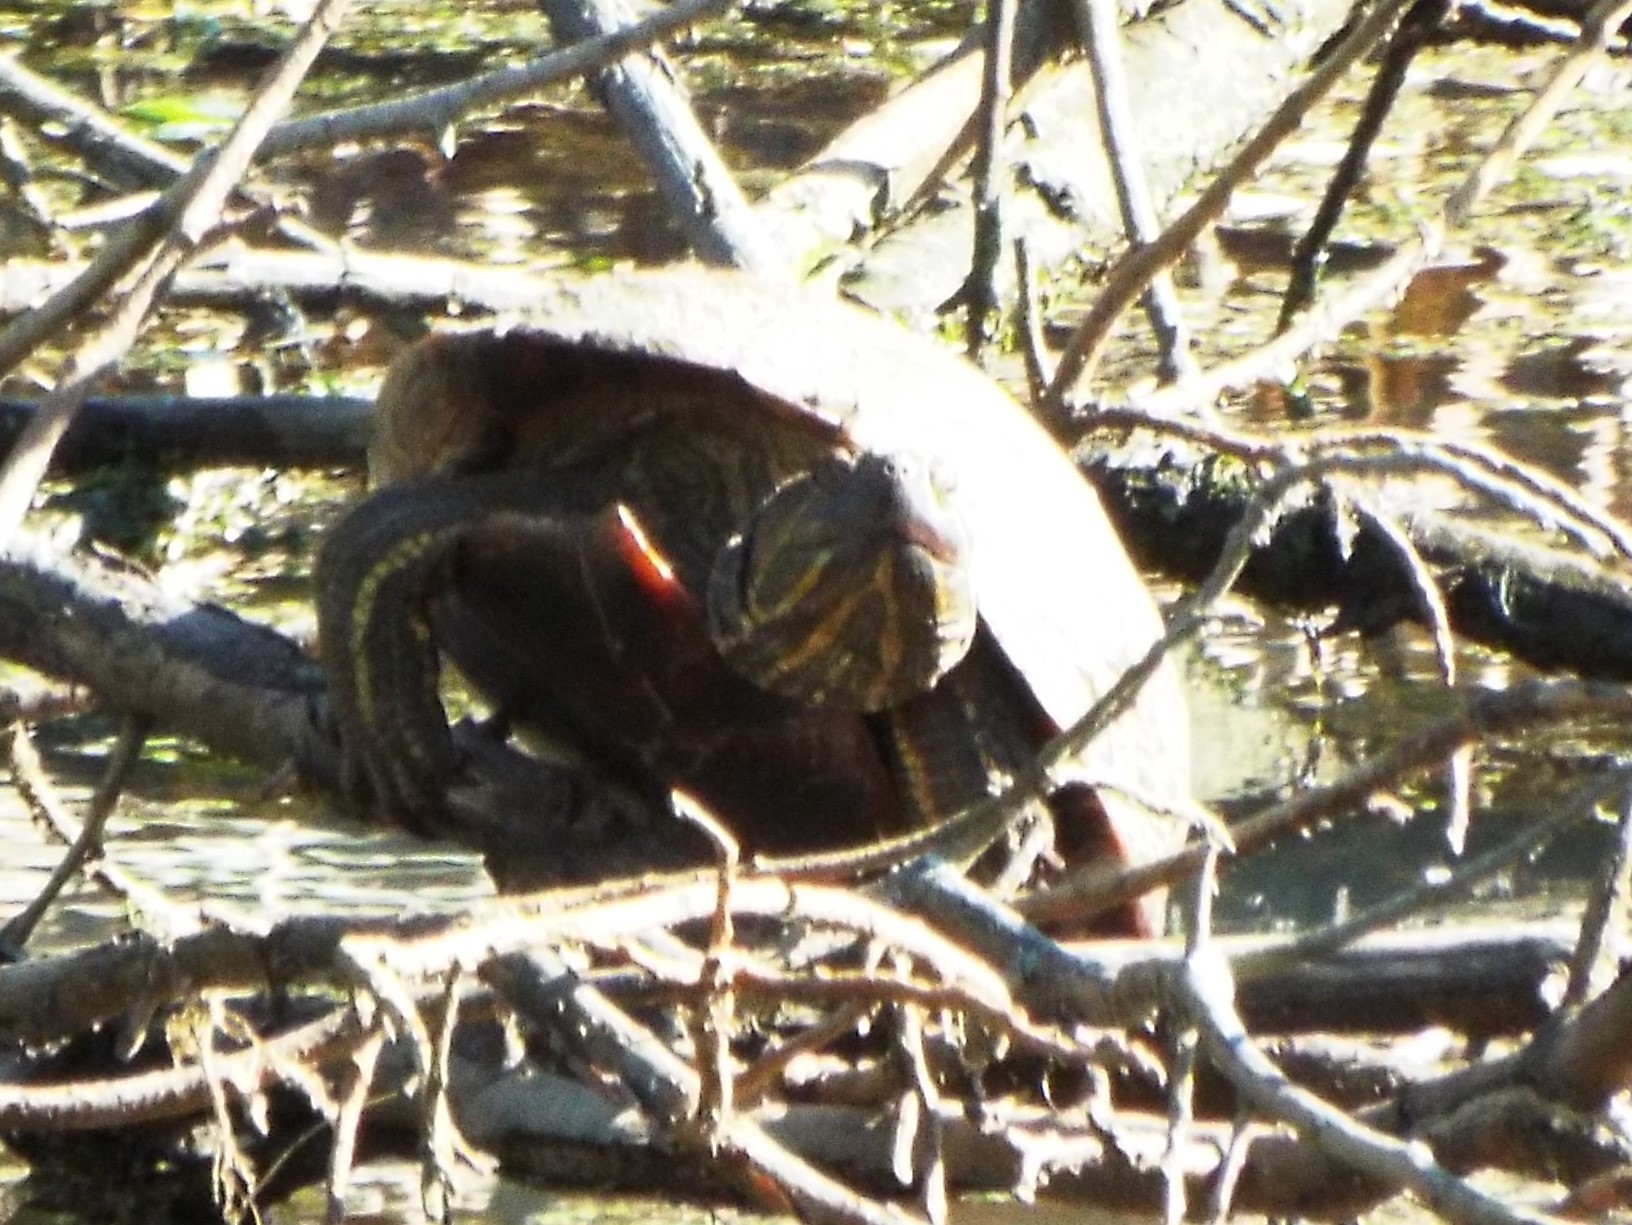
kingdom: Animalia
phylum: Chordata
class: Testudines
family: Emydidae
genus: Trachemys
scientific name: Trachemys scripta
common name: Slider
